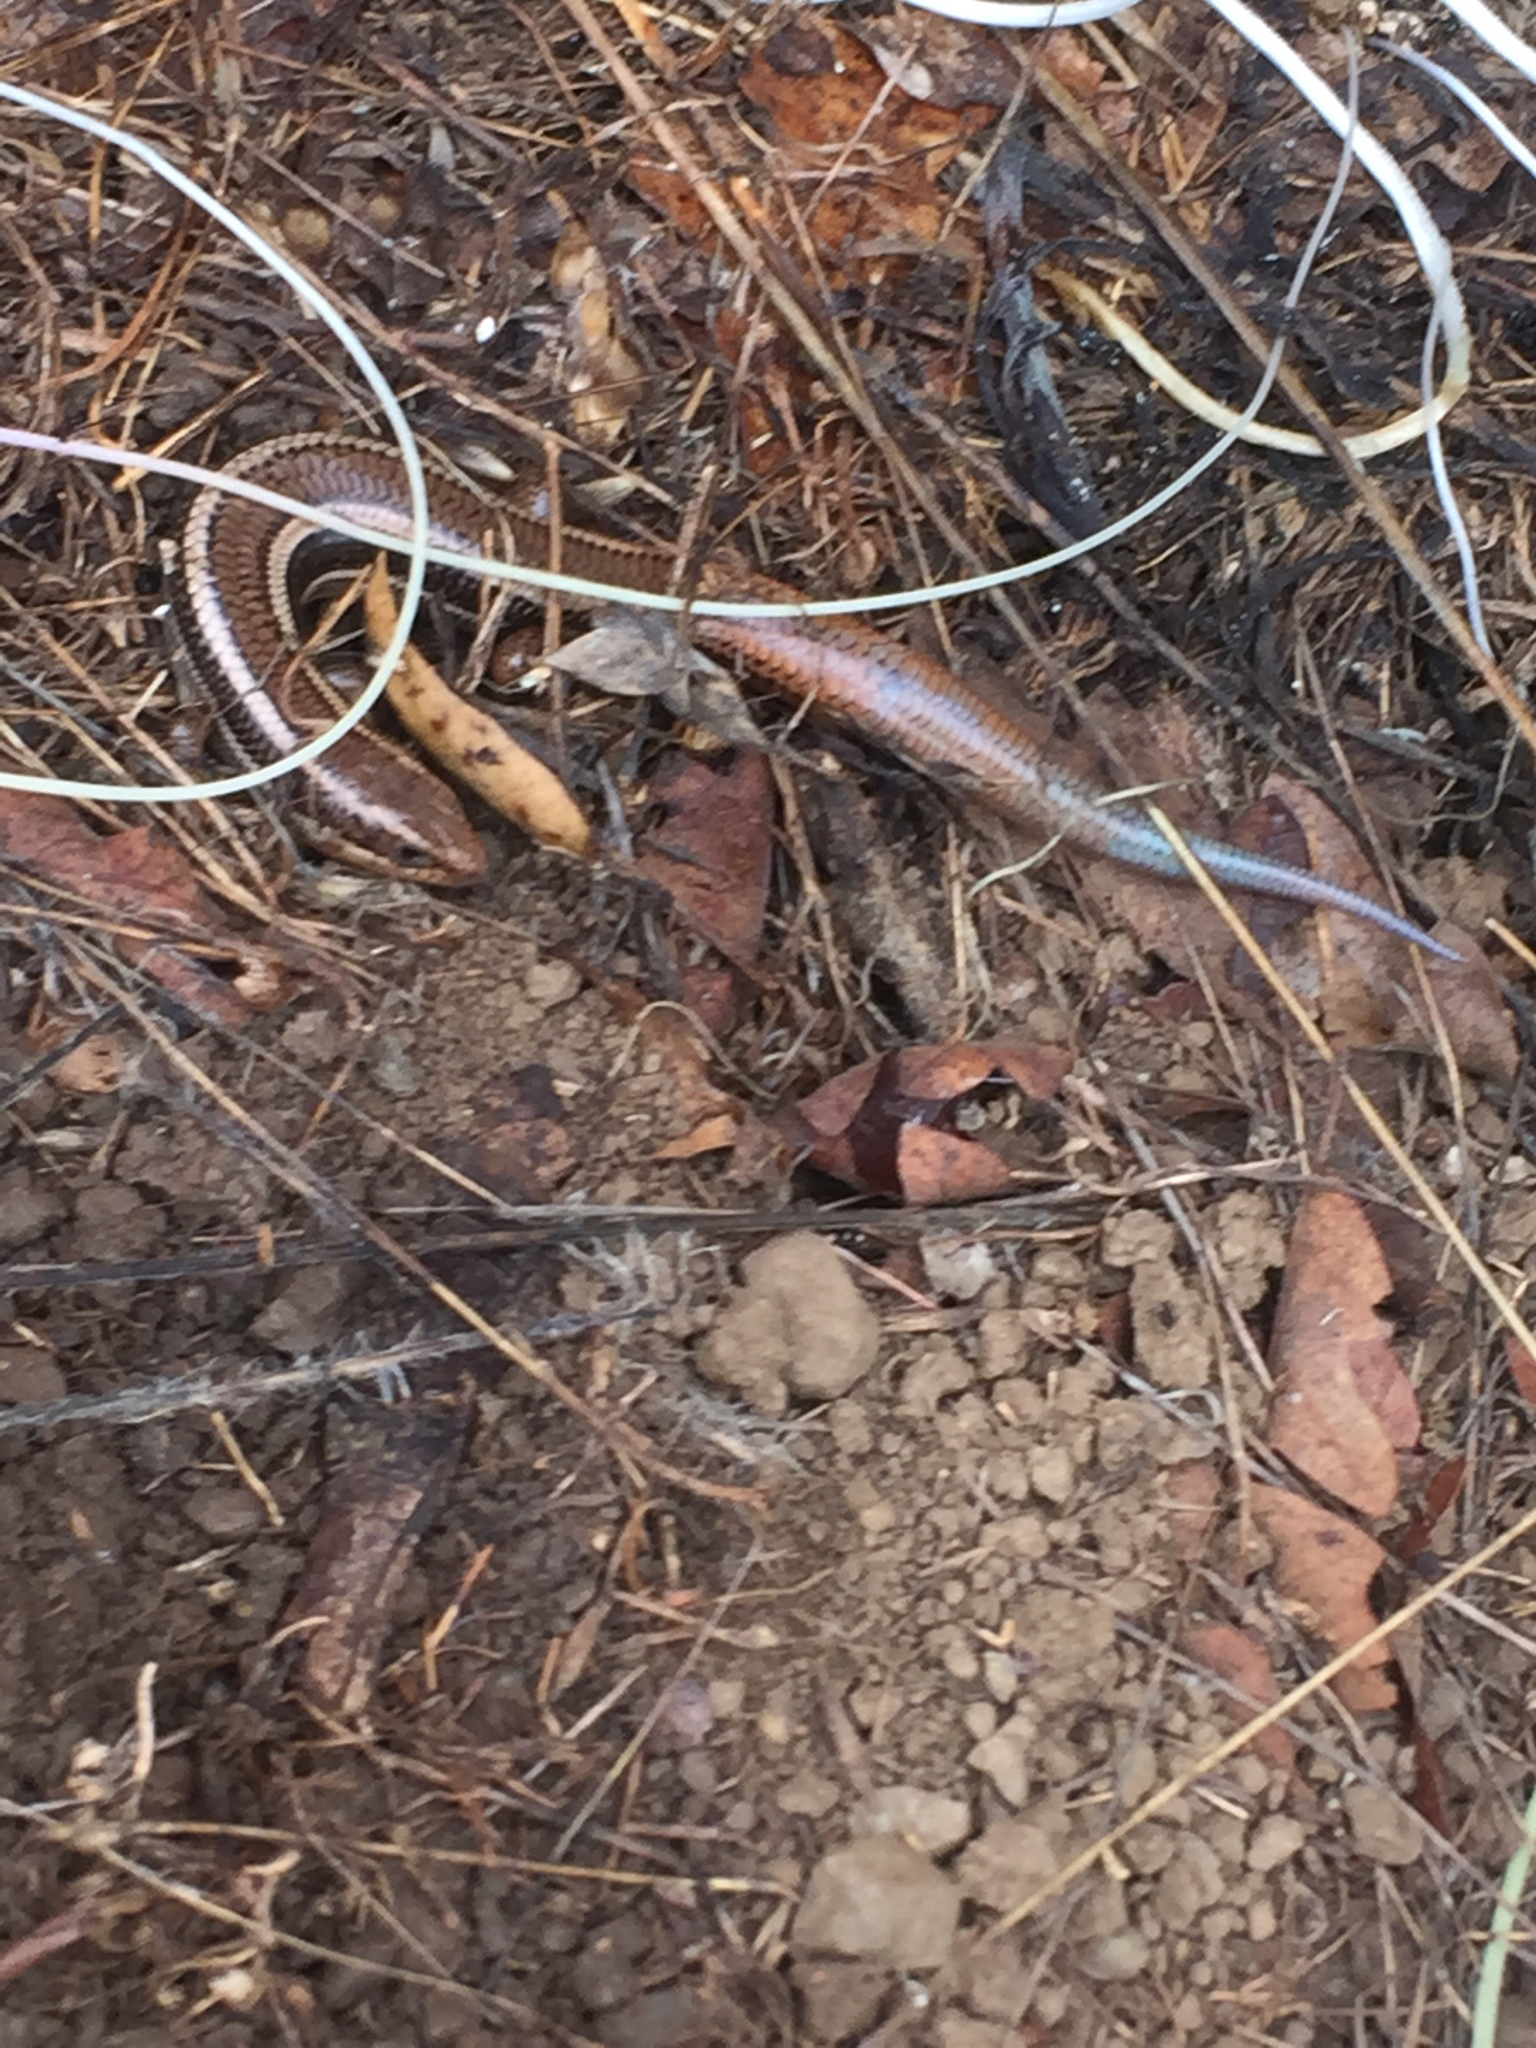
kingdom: Animalia
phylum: Chordata
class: Squamata
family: Scincidae
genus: Plestiodon
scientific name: Plestiodon skiltonianus
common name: Coronado island skink [interparietalis]
